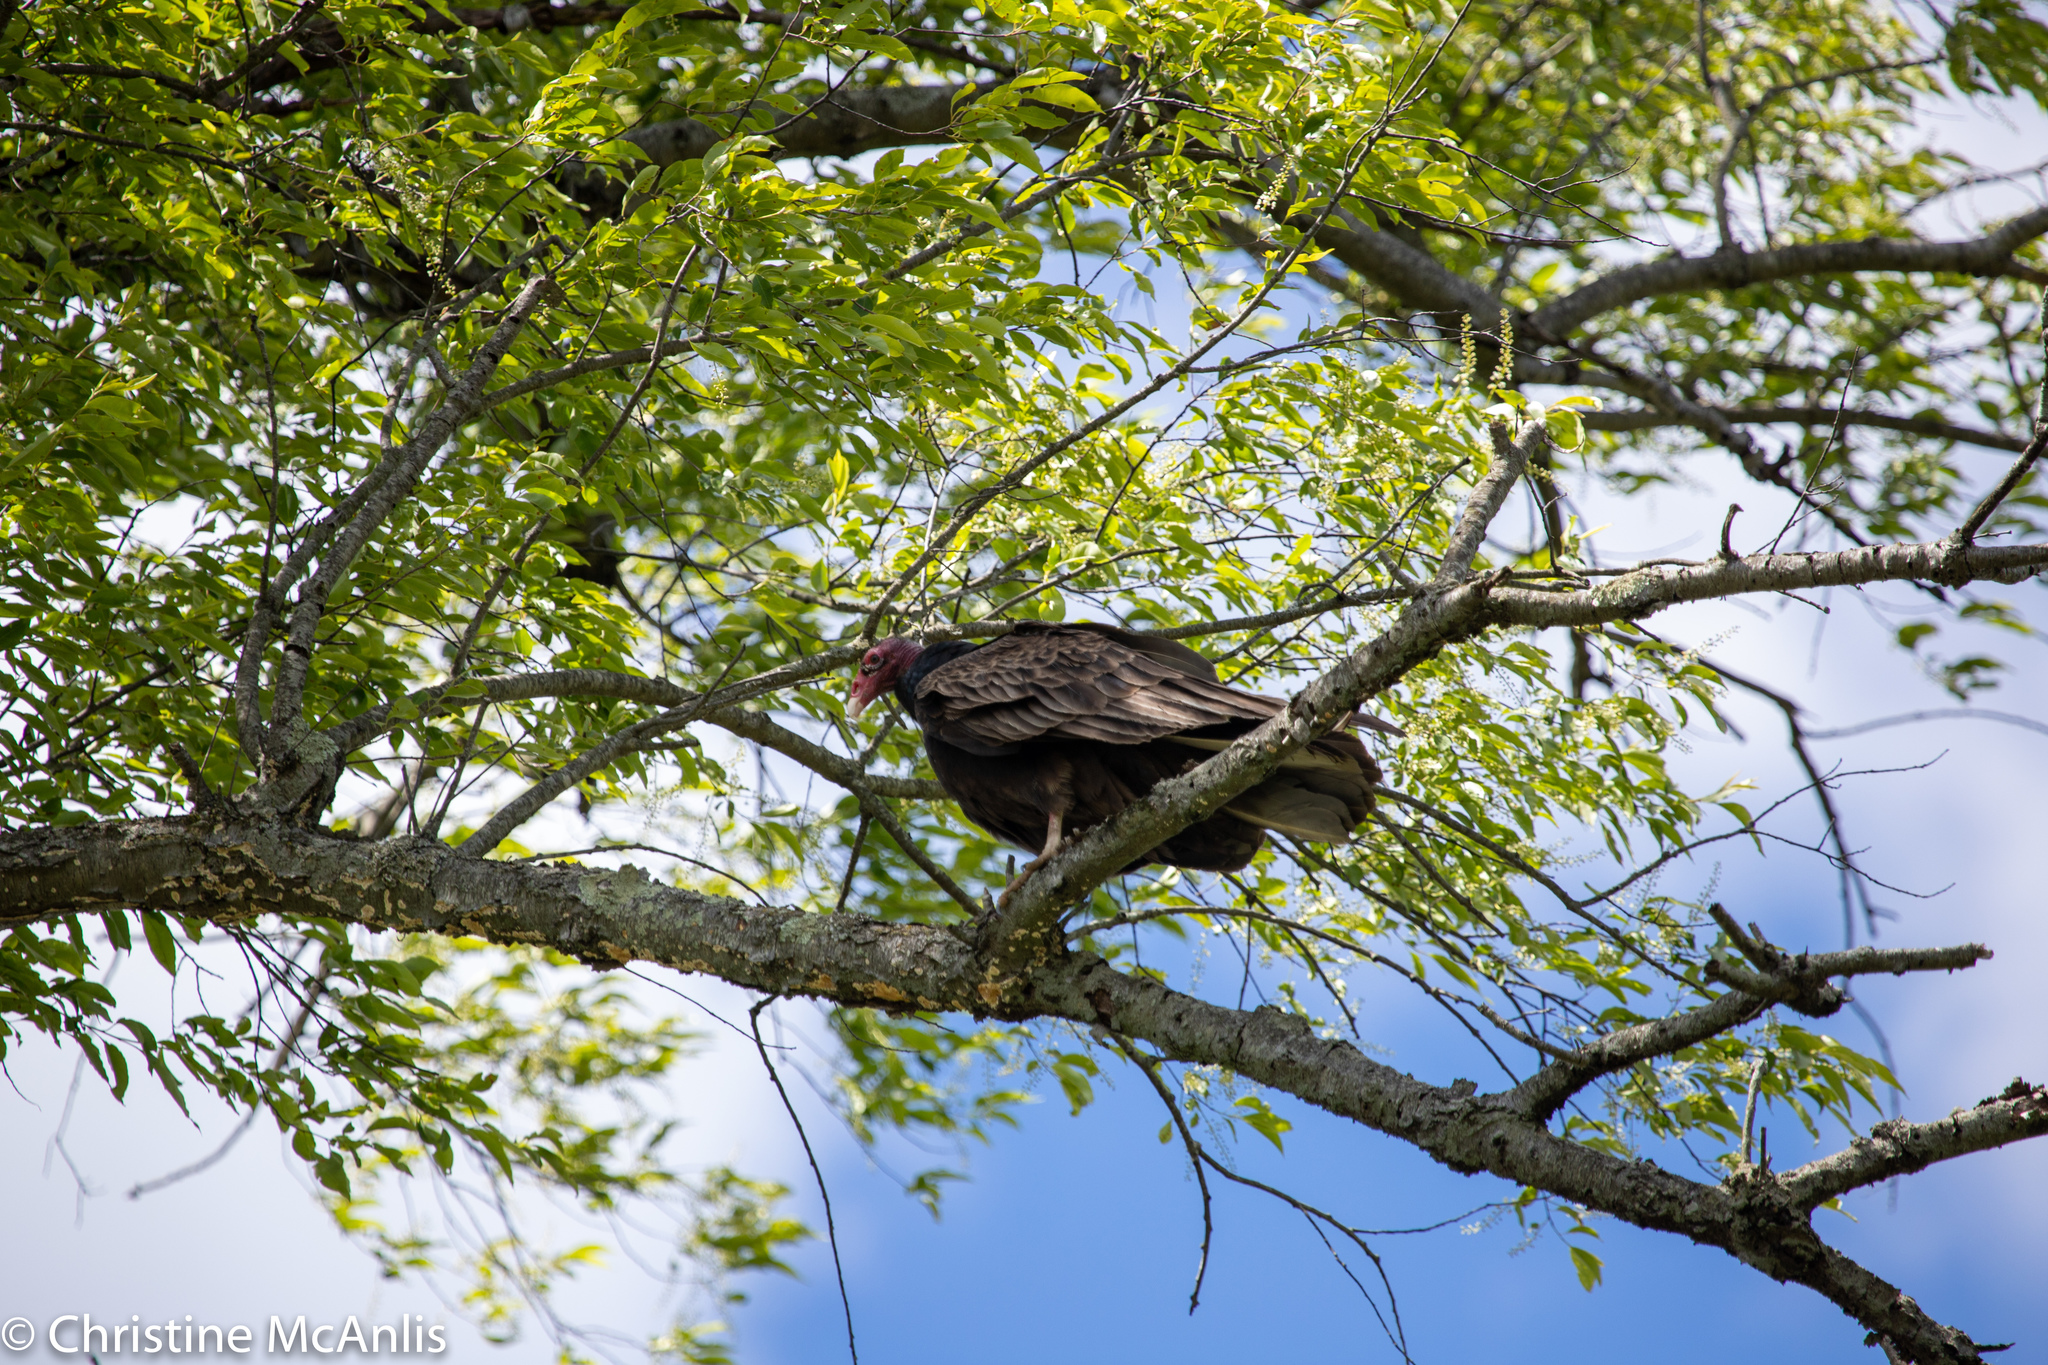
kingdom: Animalia
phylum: Chordata
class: Aves
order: Accipitriformes
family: Cathartidae
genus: Cathartes
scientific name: Cathartes aura
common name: Turkey vulture
